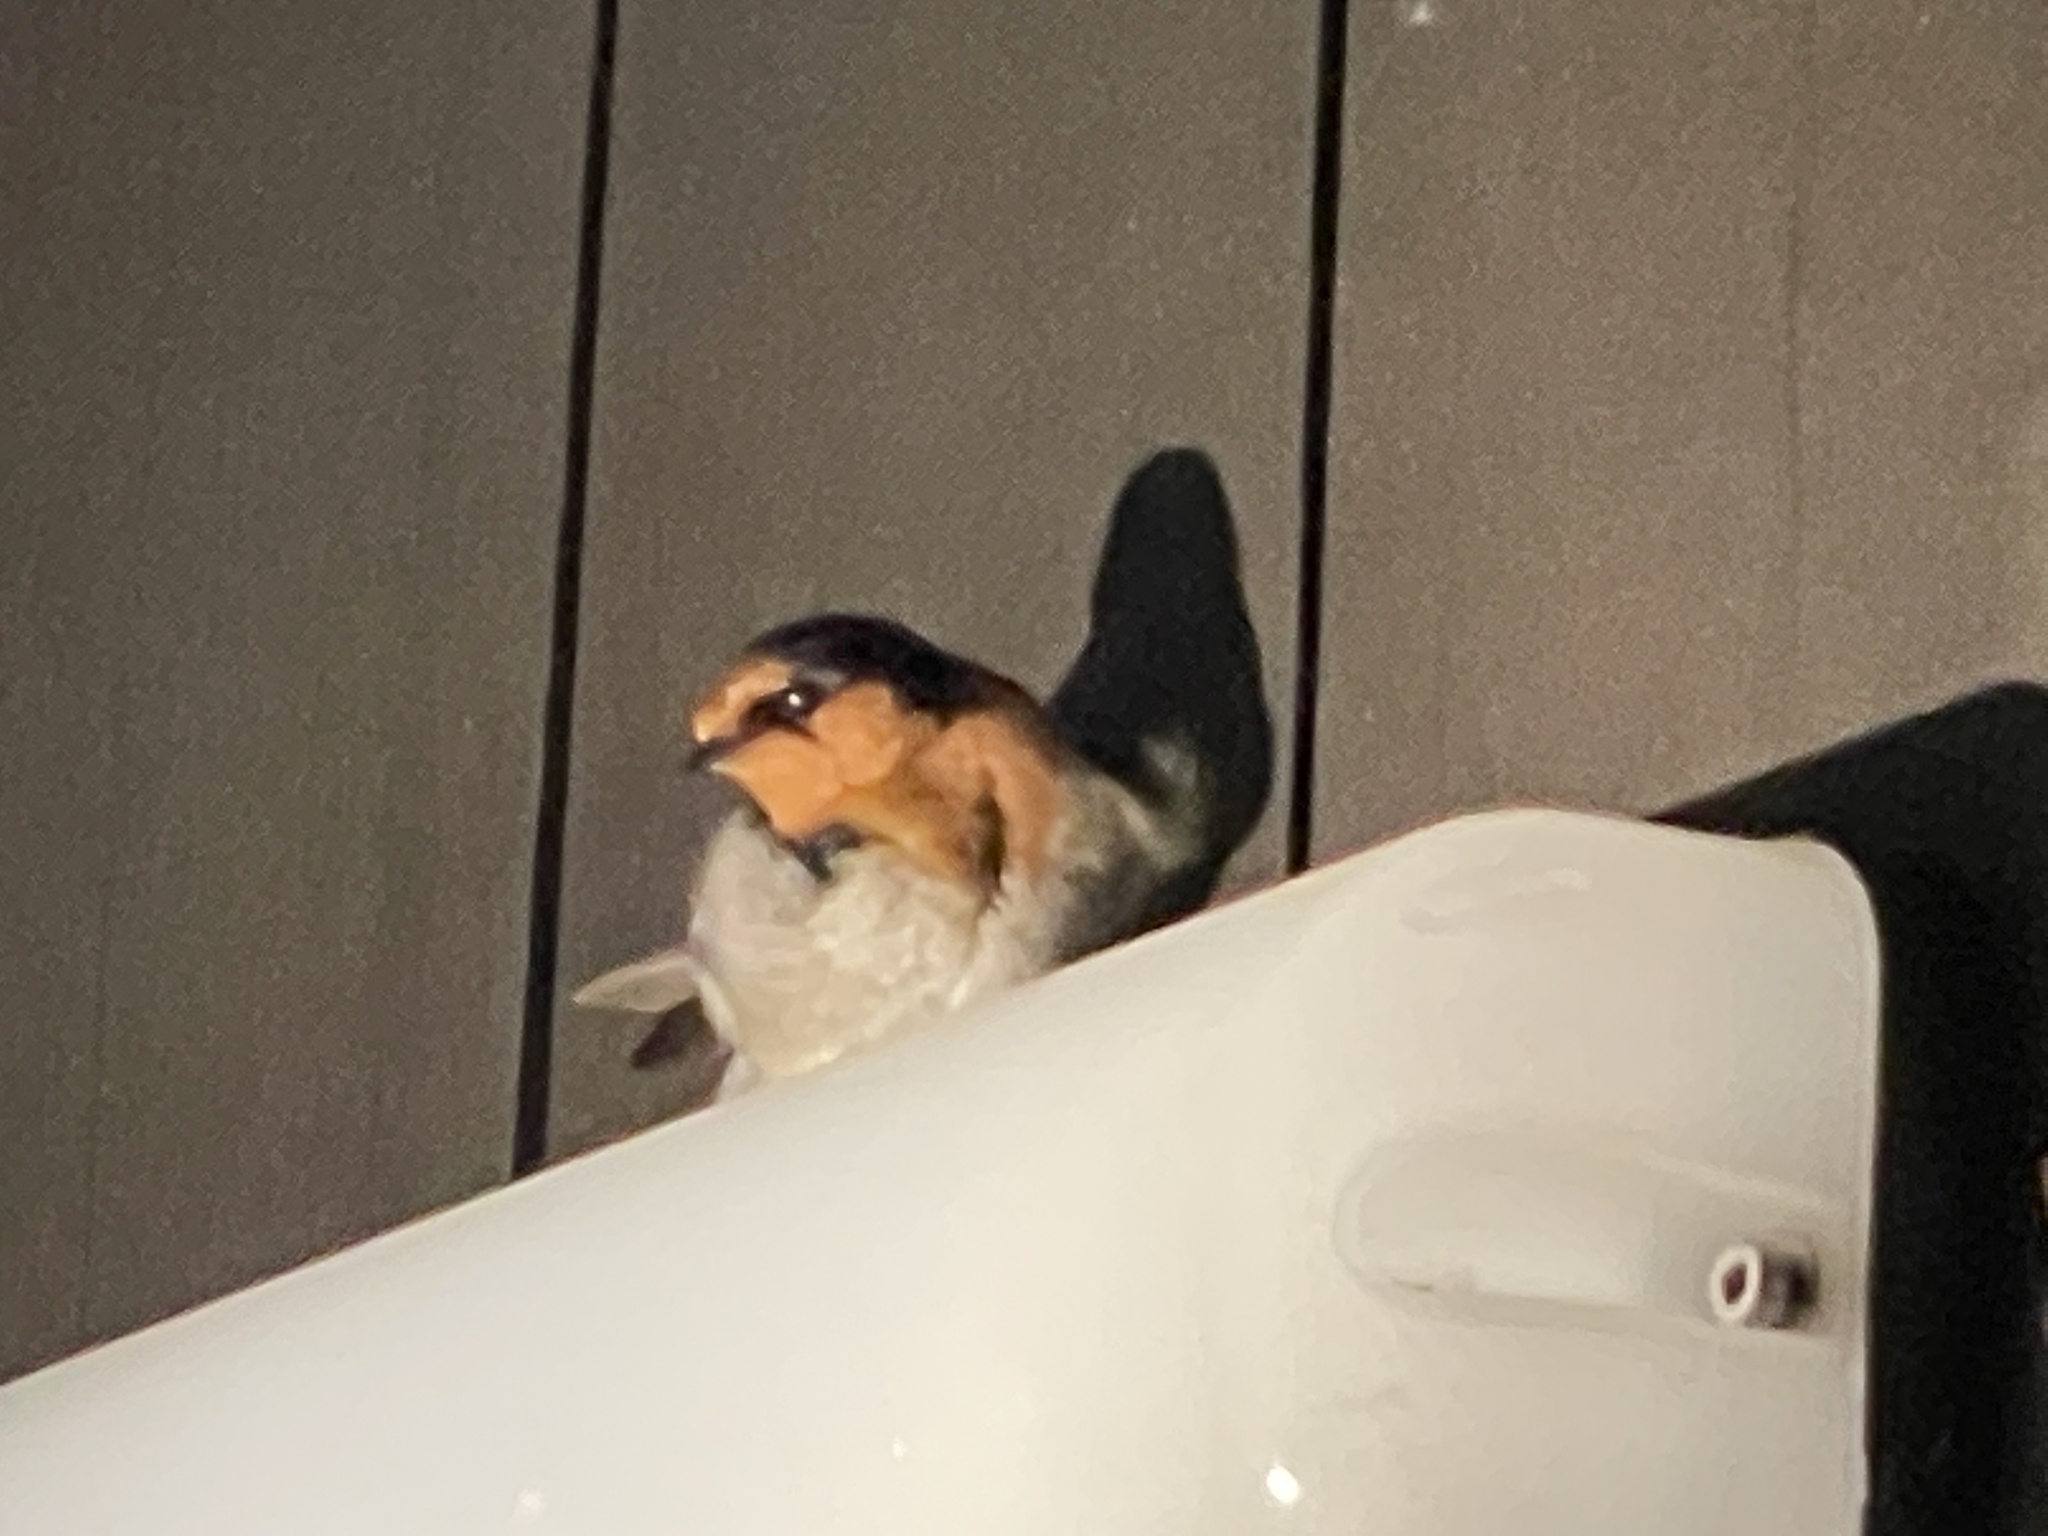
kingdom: Animalia
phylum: Chordata
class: Aves
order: Passeriformes
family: Hirundinidae
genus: Hirundo
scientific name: Hirundo neoxena
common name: Welcome swallow
